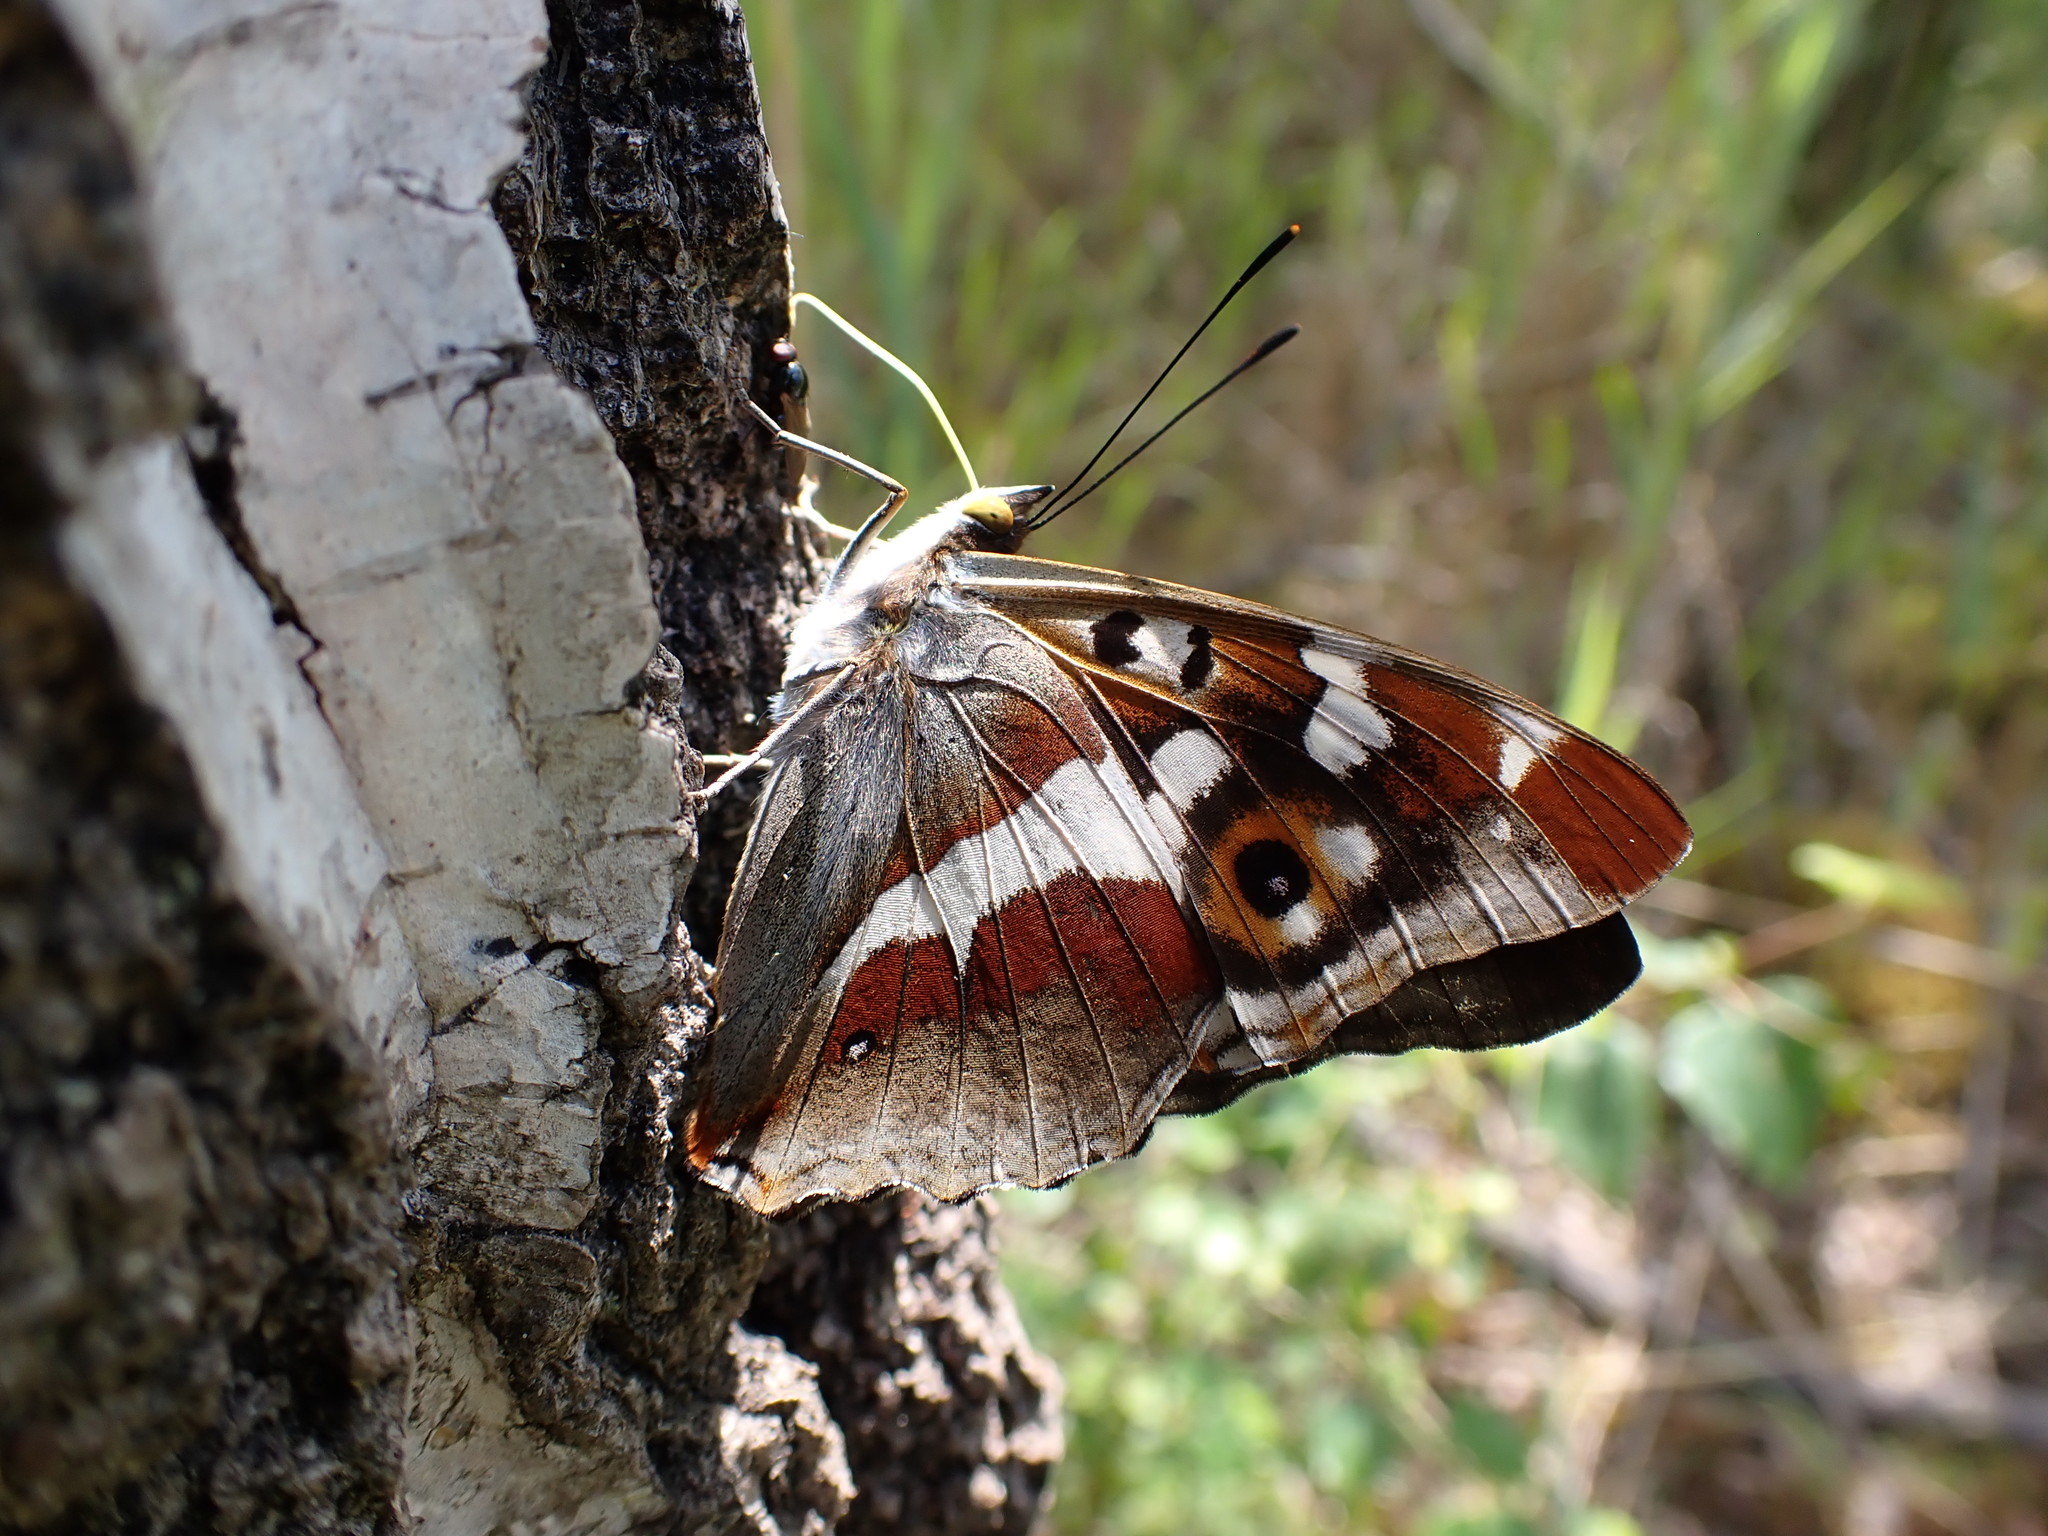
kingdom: Animalia
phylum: Arthropoda
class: Insecta
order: Lepidoptera
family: Nymphalidae
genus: Apatura
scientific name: Apatura iris
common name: Purple emperor
